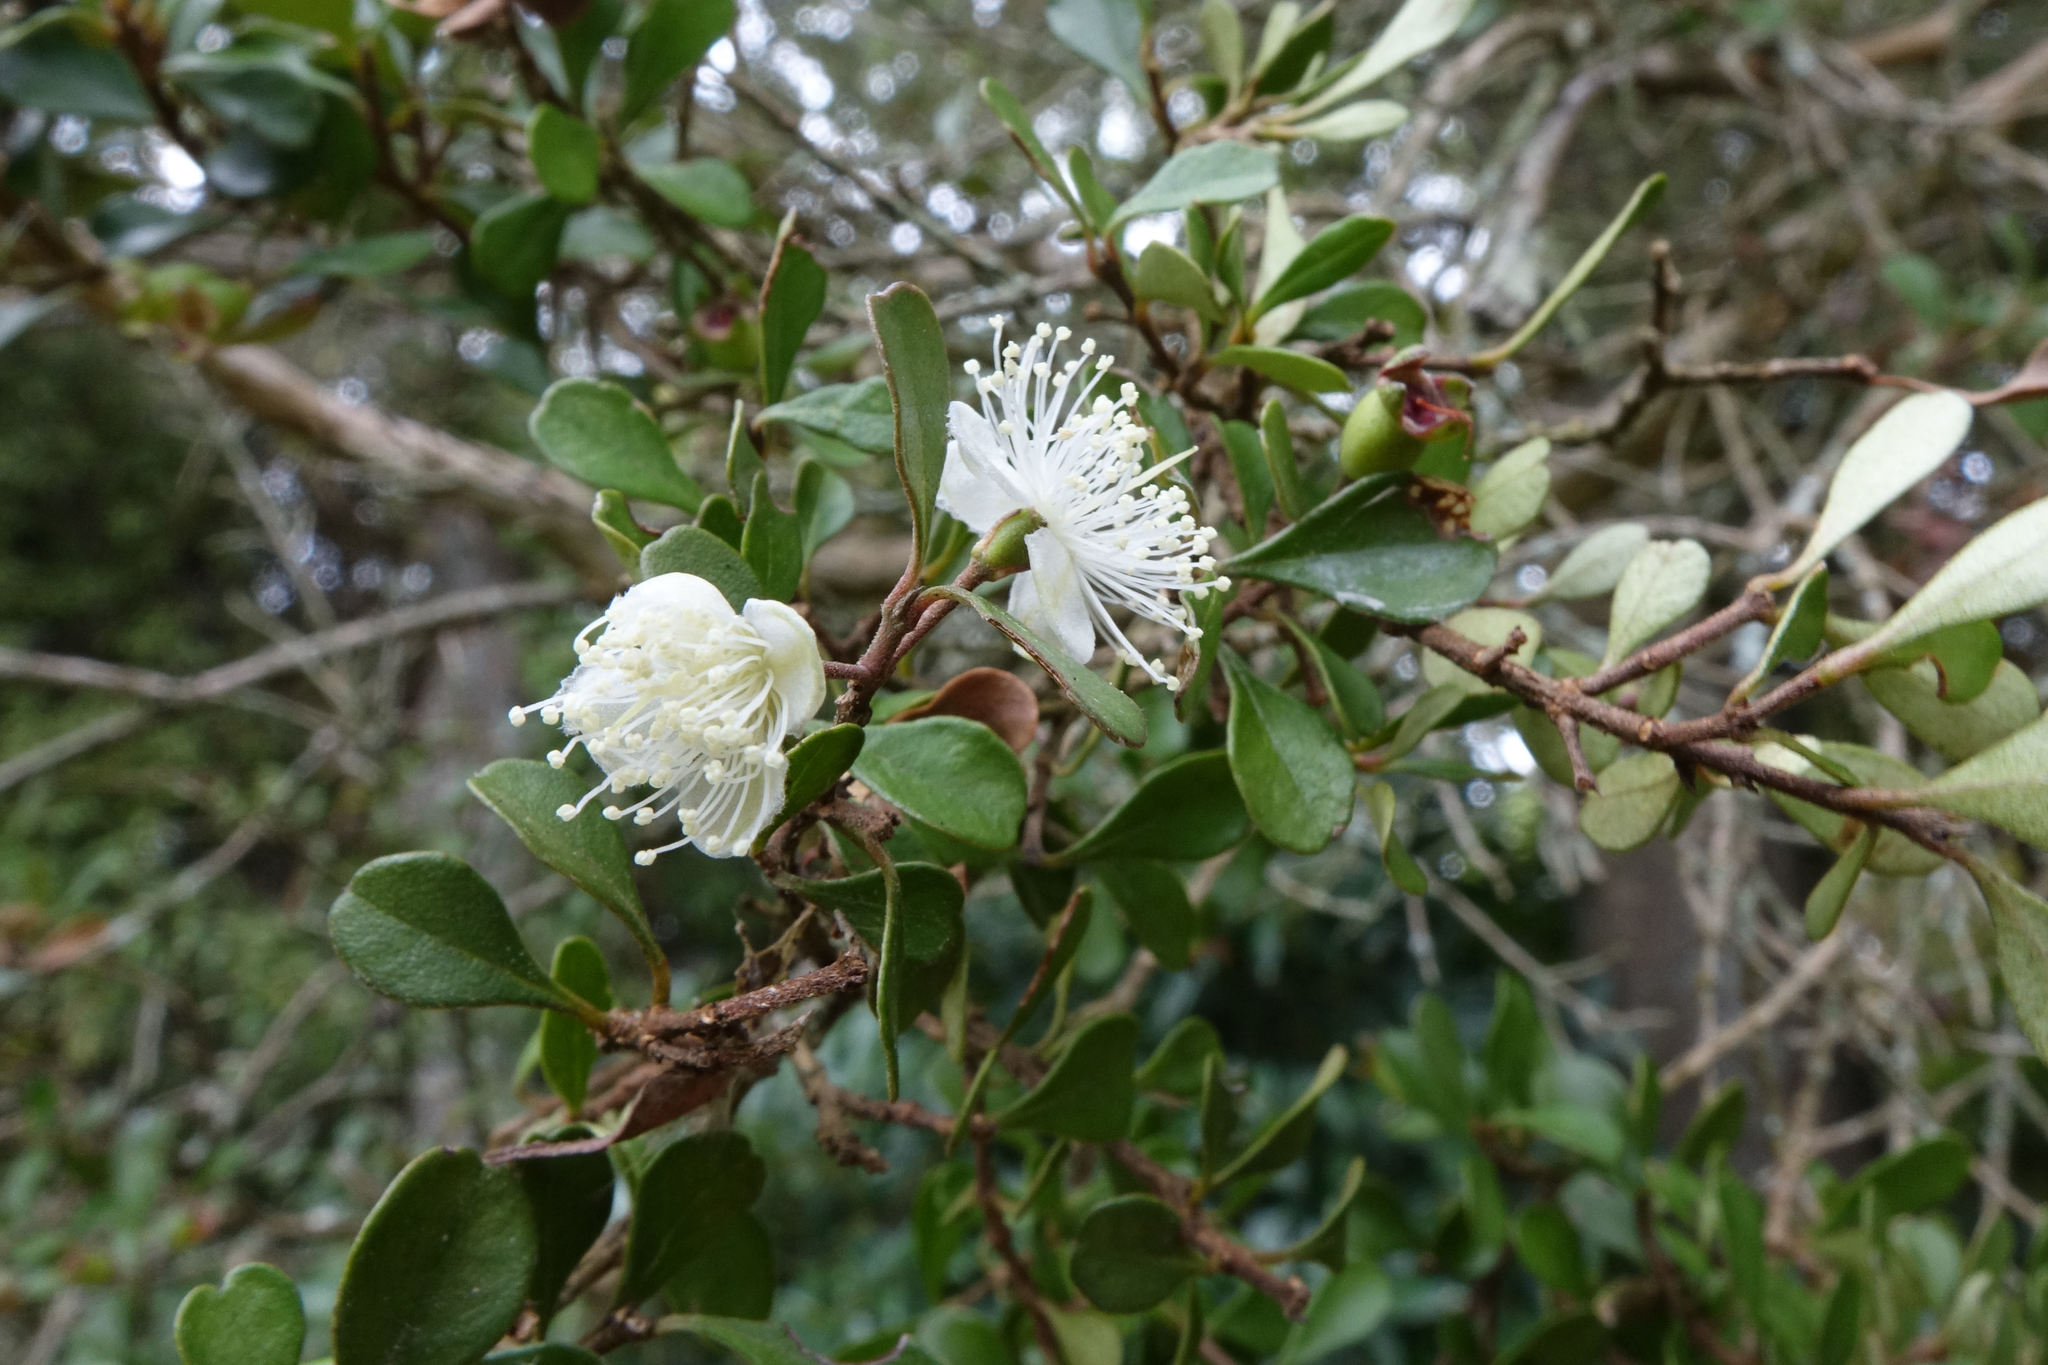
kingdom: Plantae
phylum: Tracheophyta
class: Magnoliopsida
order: Myrtales
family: Myrtaceae
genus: Lophomyrtus
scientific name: Lophomyrtus obcordata
